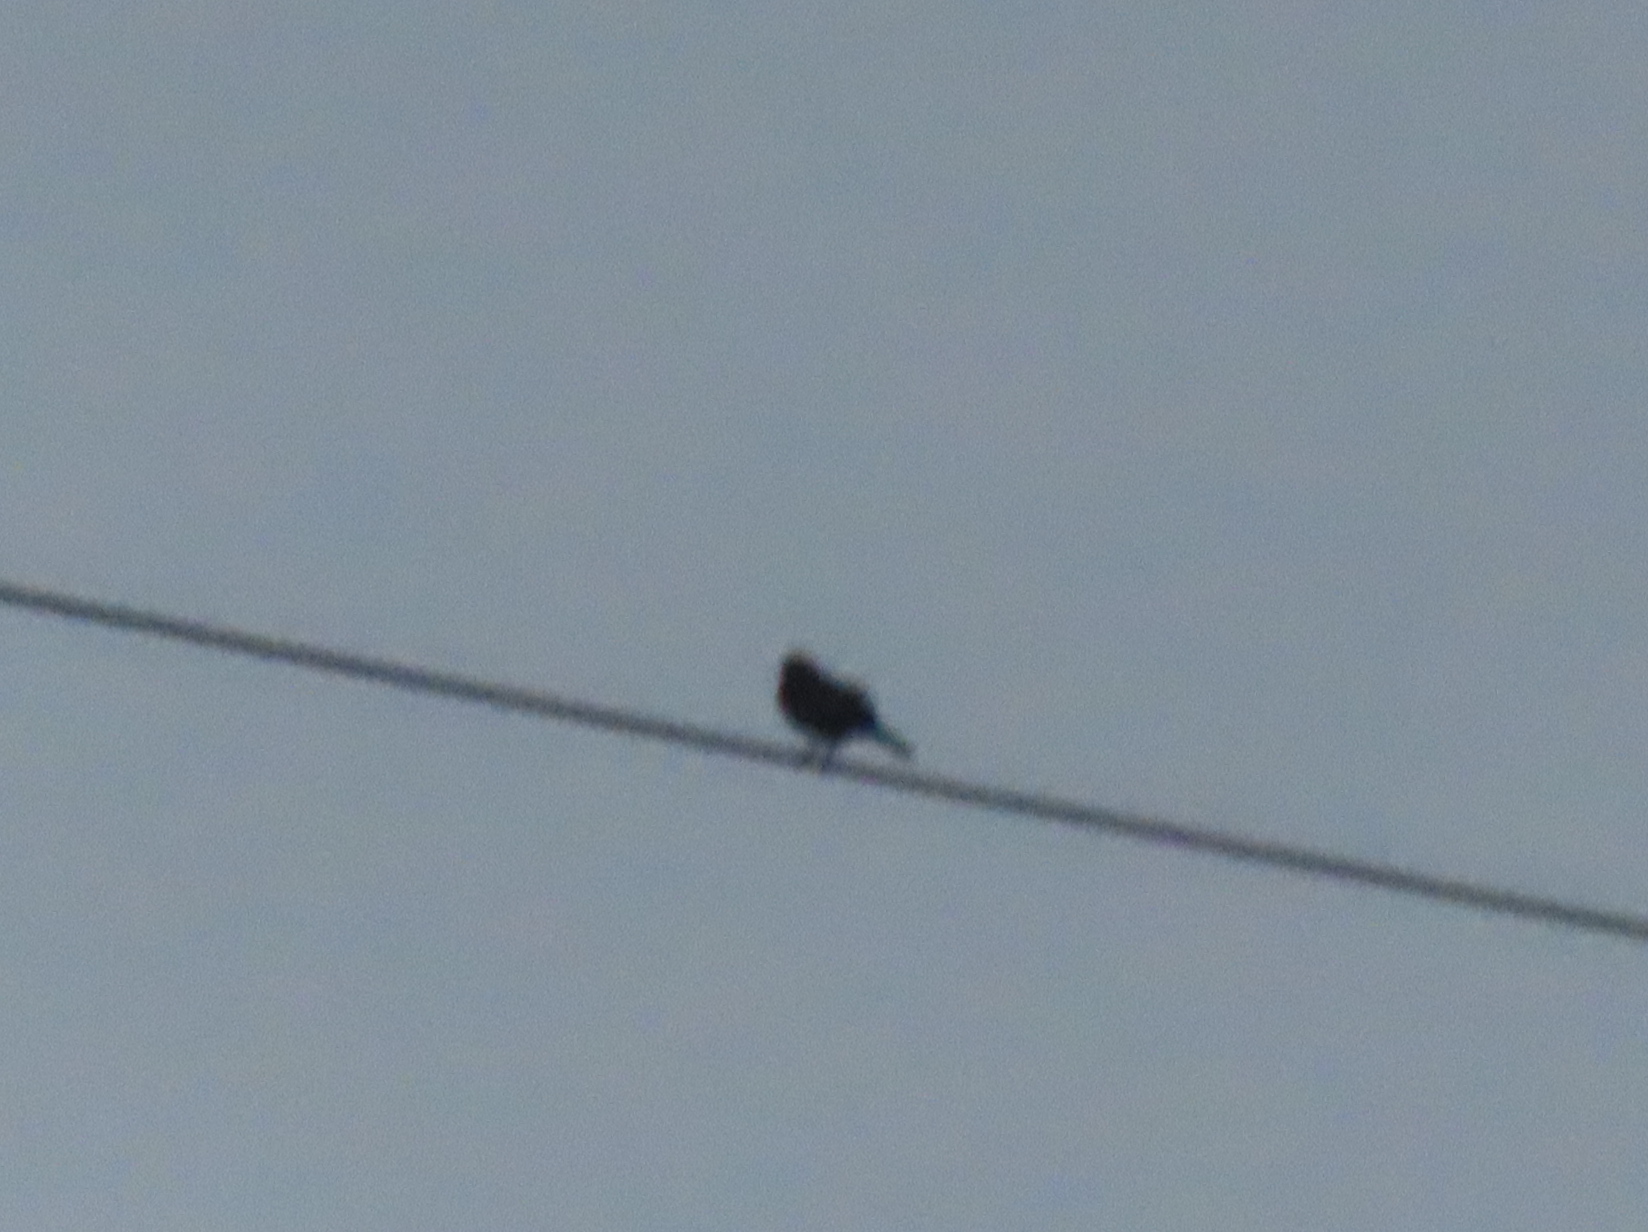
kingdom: Animalia
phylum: Chordata
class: Aves
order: Passeriformes
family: Icteridae
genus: Agelaius
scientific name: Agelaius phoeniceus
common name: Red-winged blackbird
